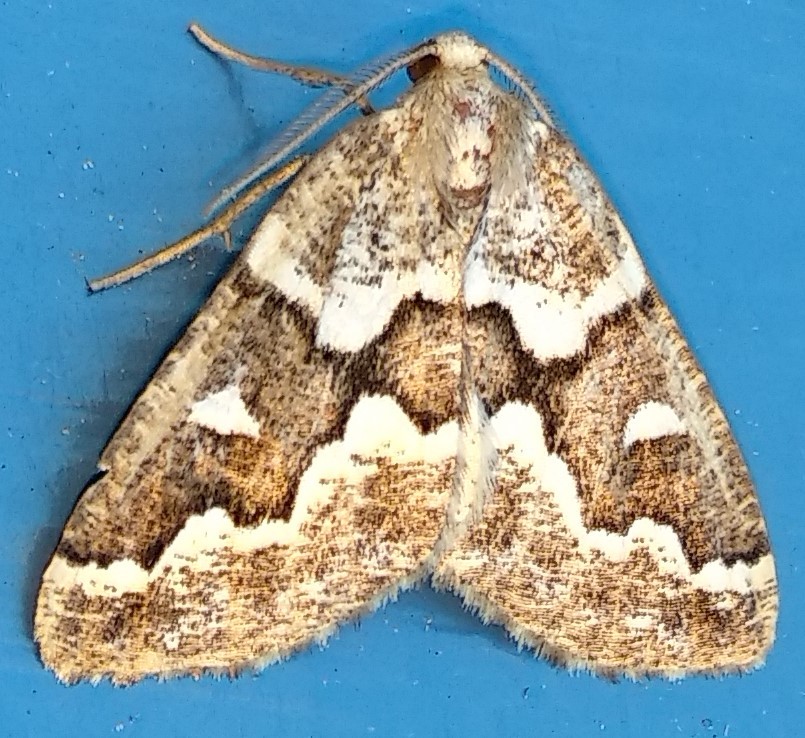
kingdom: Animalia
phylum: Arthropoda
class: Insecta
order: Lepidoptera
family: Geometridae
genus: Caripeta
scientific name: Caripeta divisata
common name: Gray spruce looper
